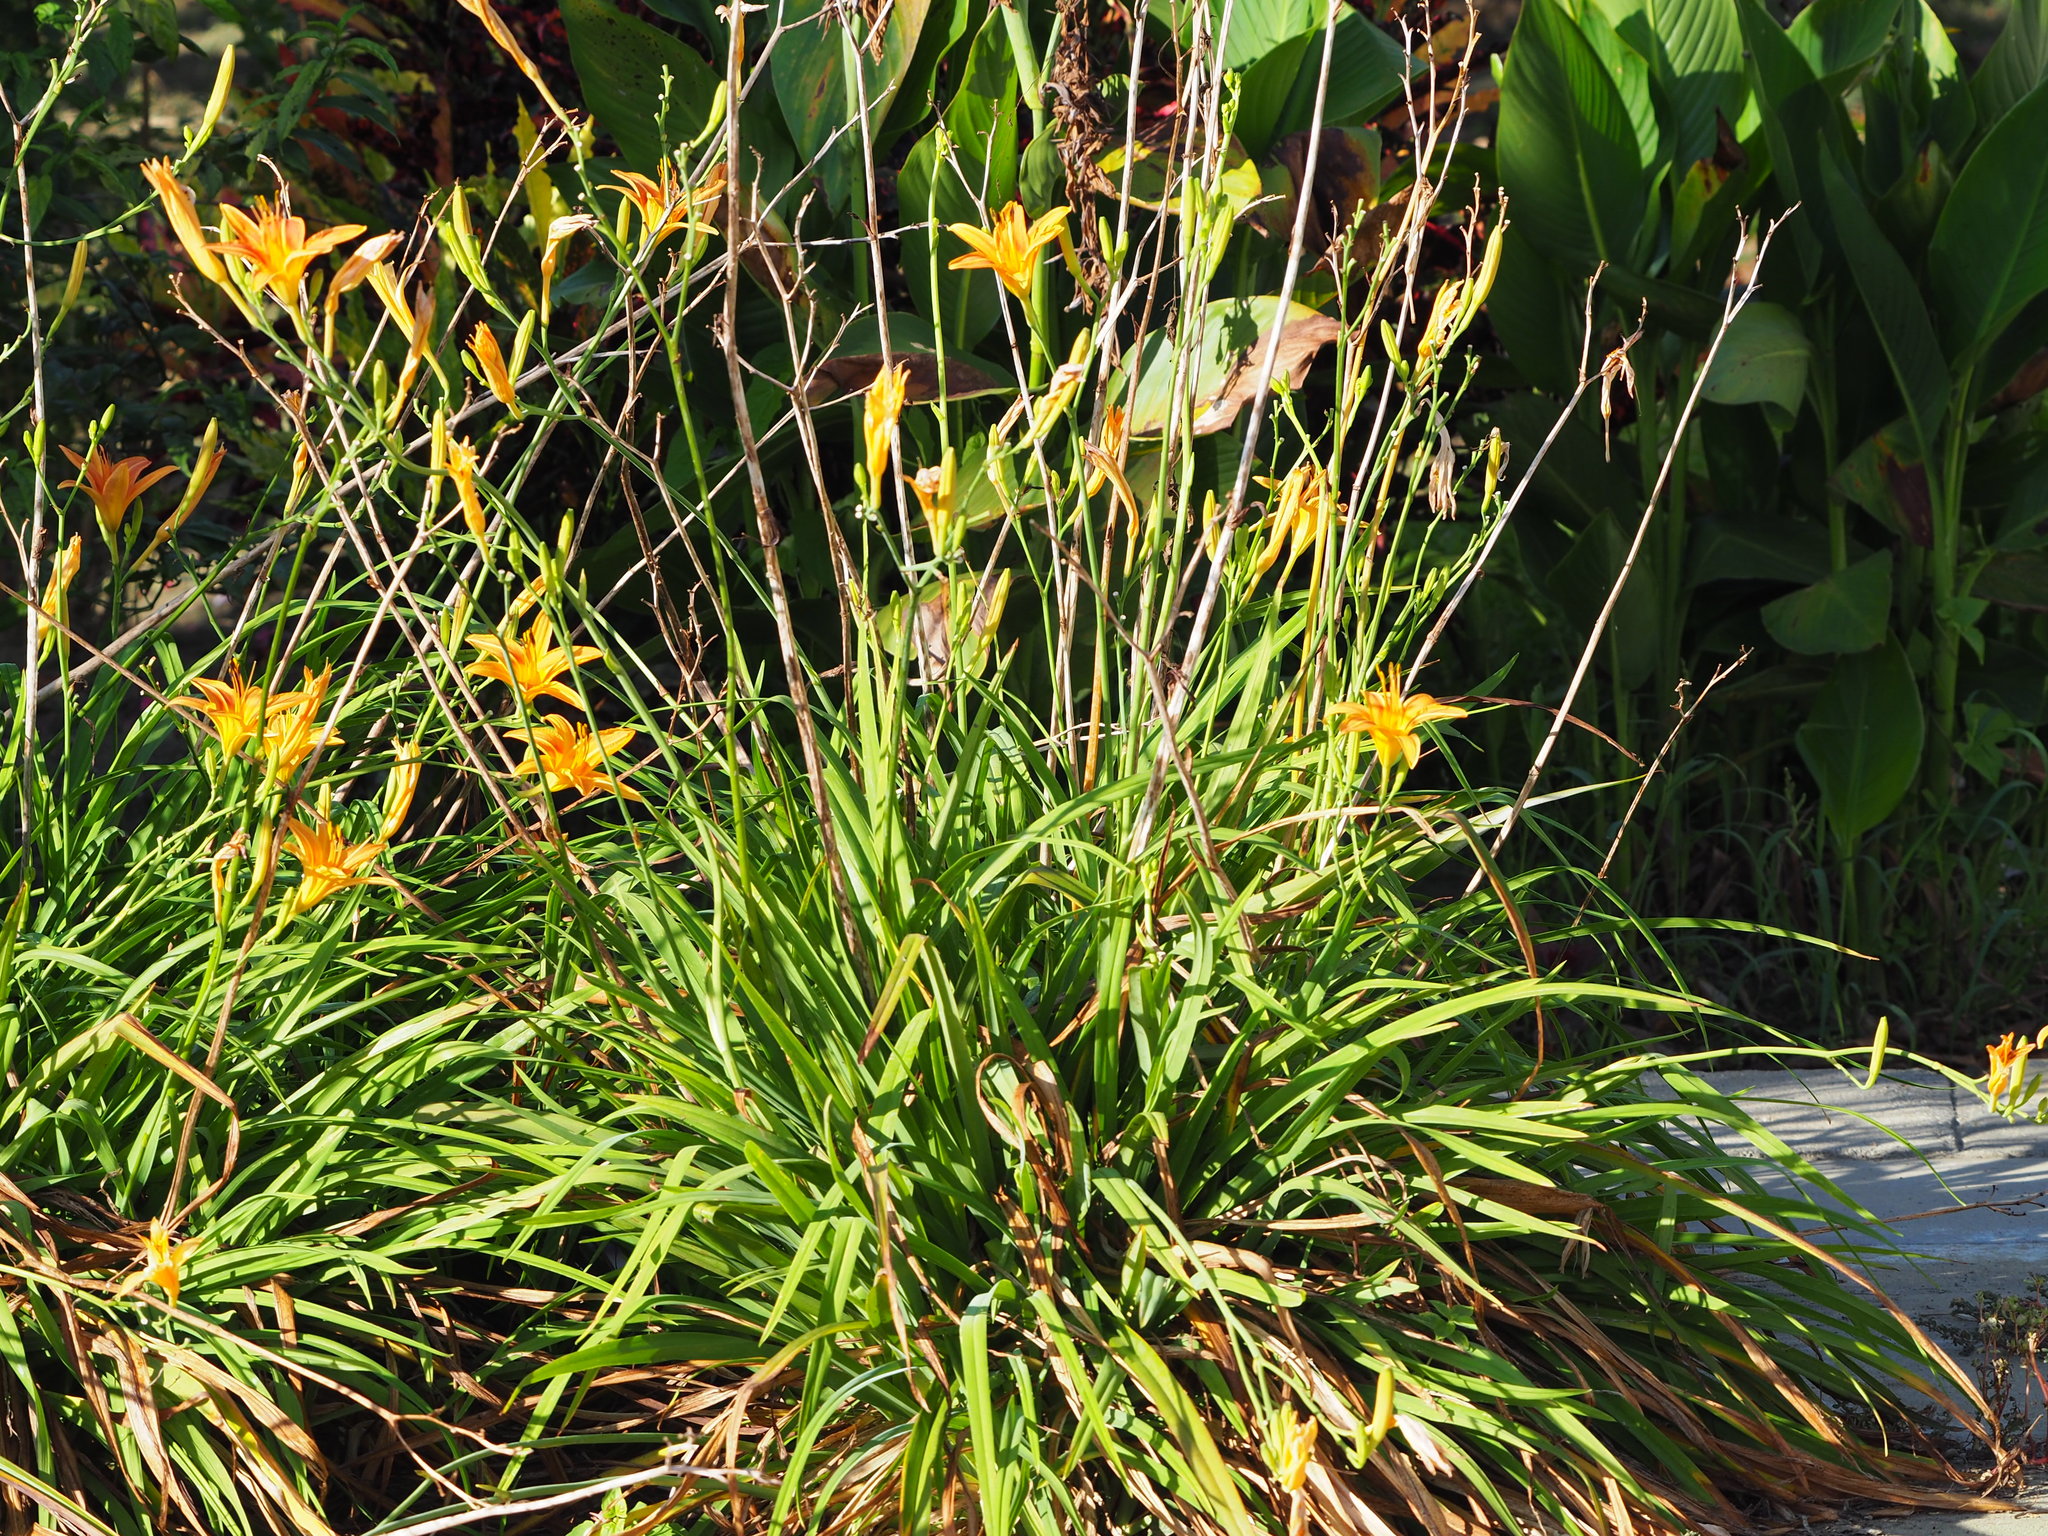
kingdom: Plantae
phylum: Tracheophyta
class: Liliopsida
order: Asparagales
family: Asphodelaceae
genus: Hemerocallis
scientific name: Hemerocallis fulva
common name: Orange day-lily
